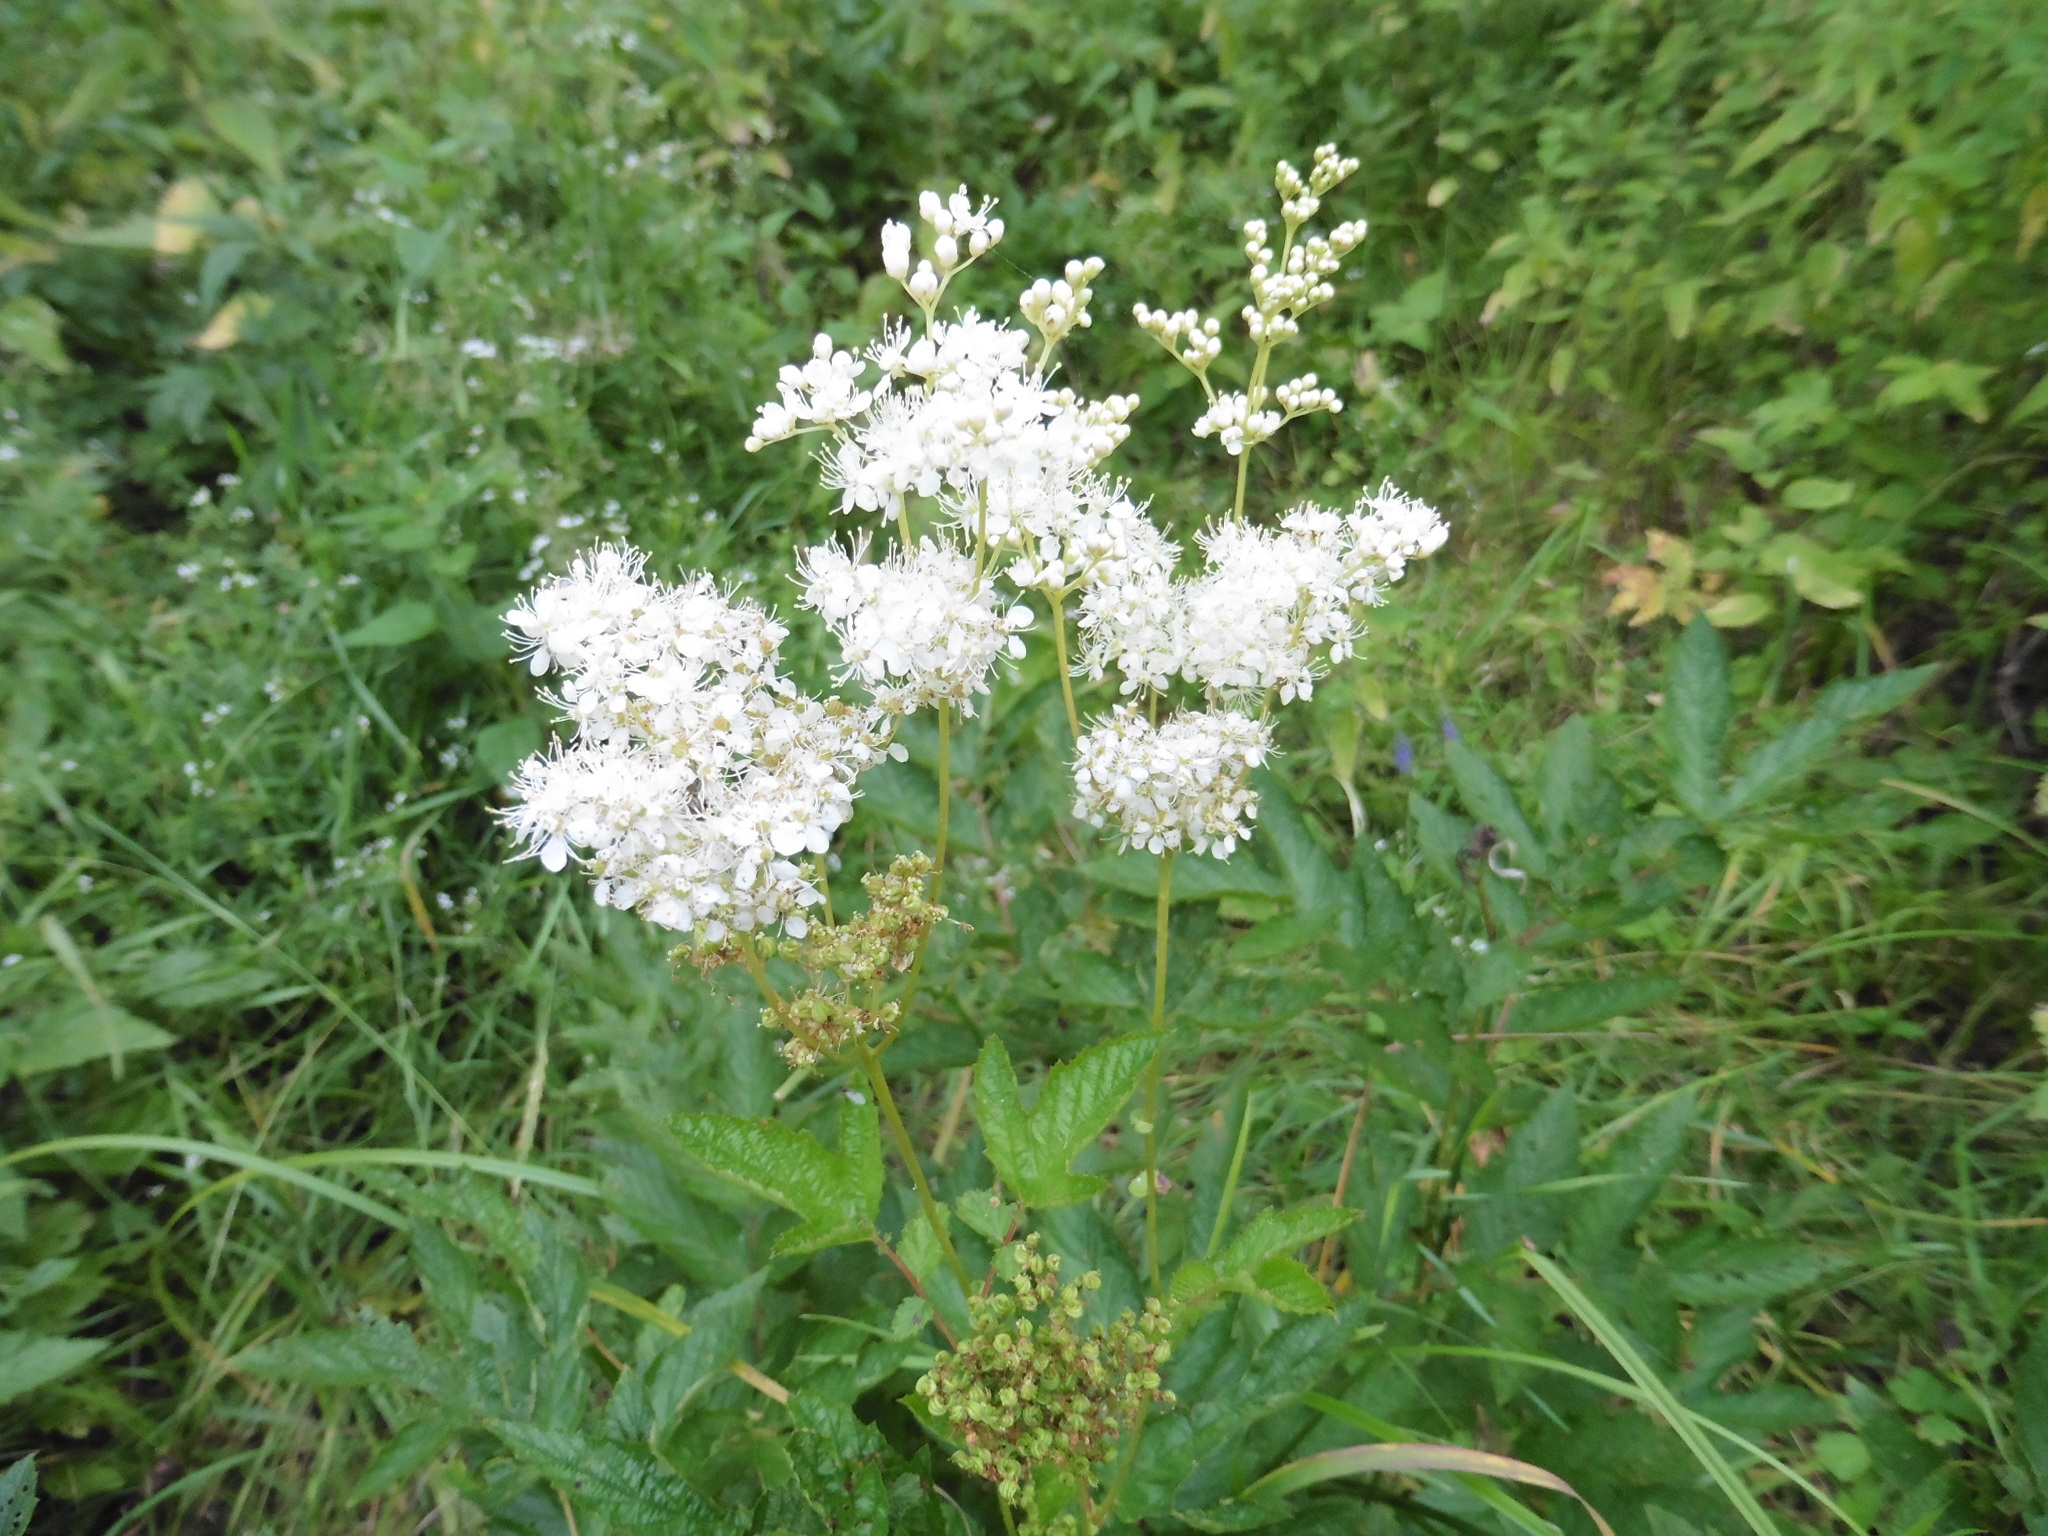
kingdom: Plantae
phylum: Tracheophyta
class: Magnoliopsida
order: Rosales
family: Rosaceae
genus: Filipendula
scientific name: Filipendula ulmaria
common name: Meadowsweet
